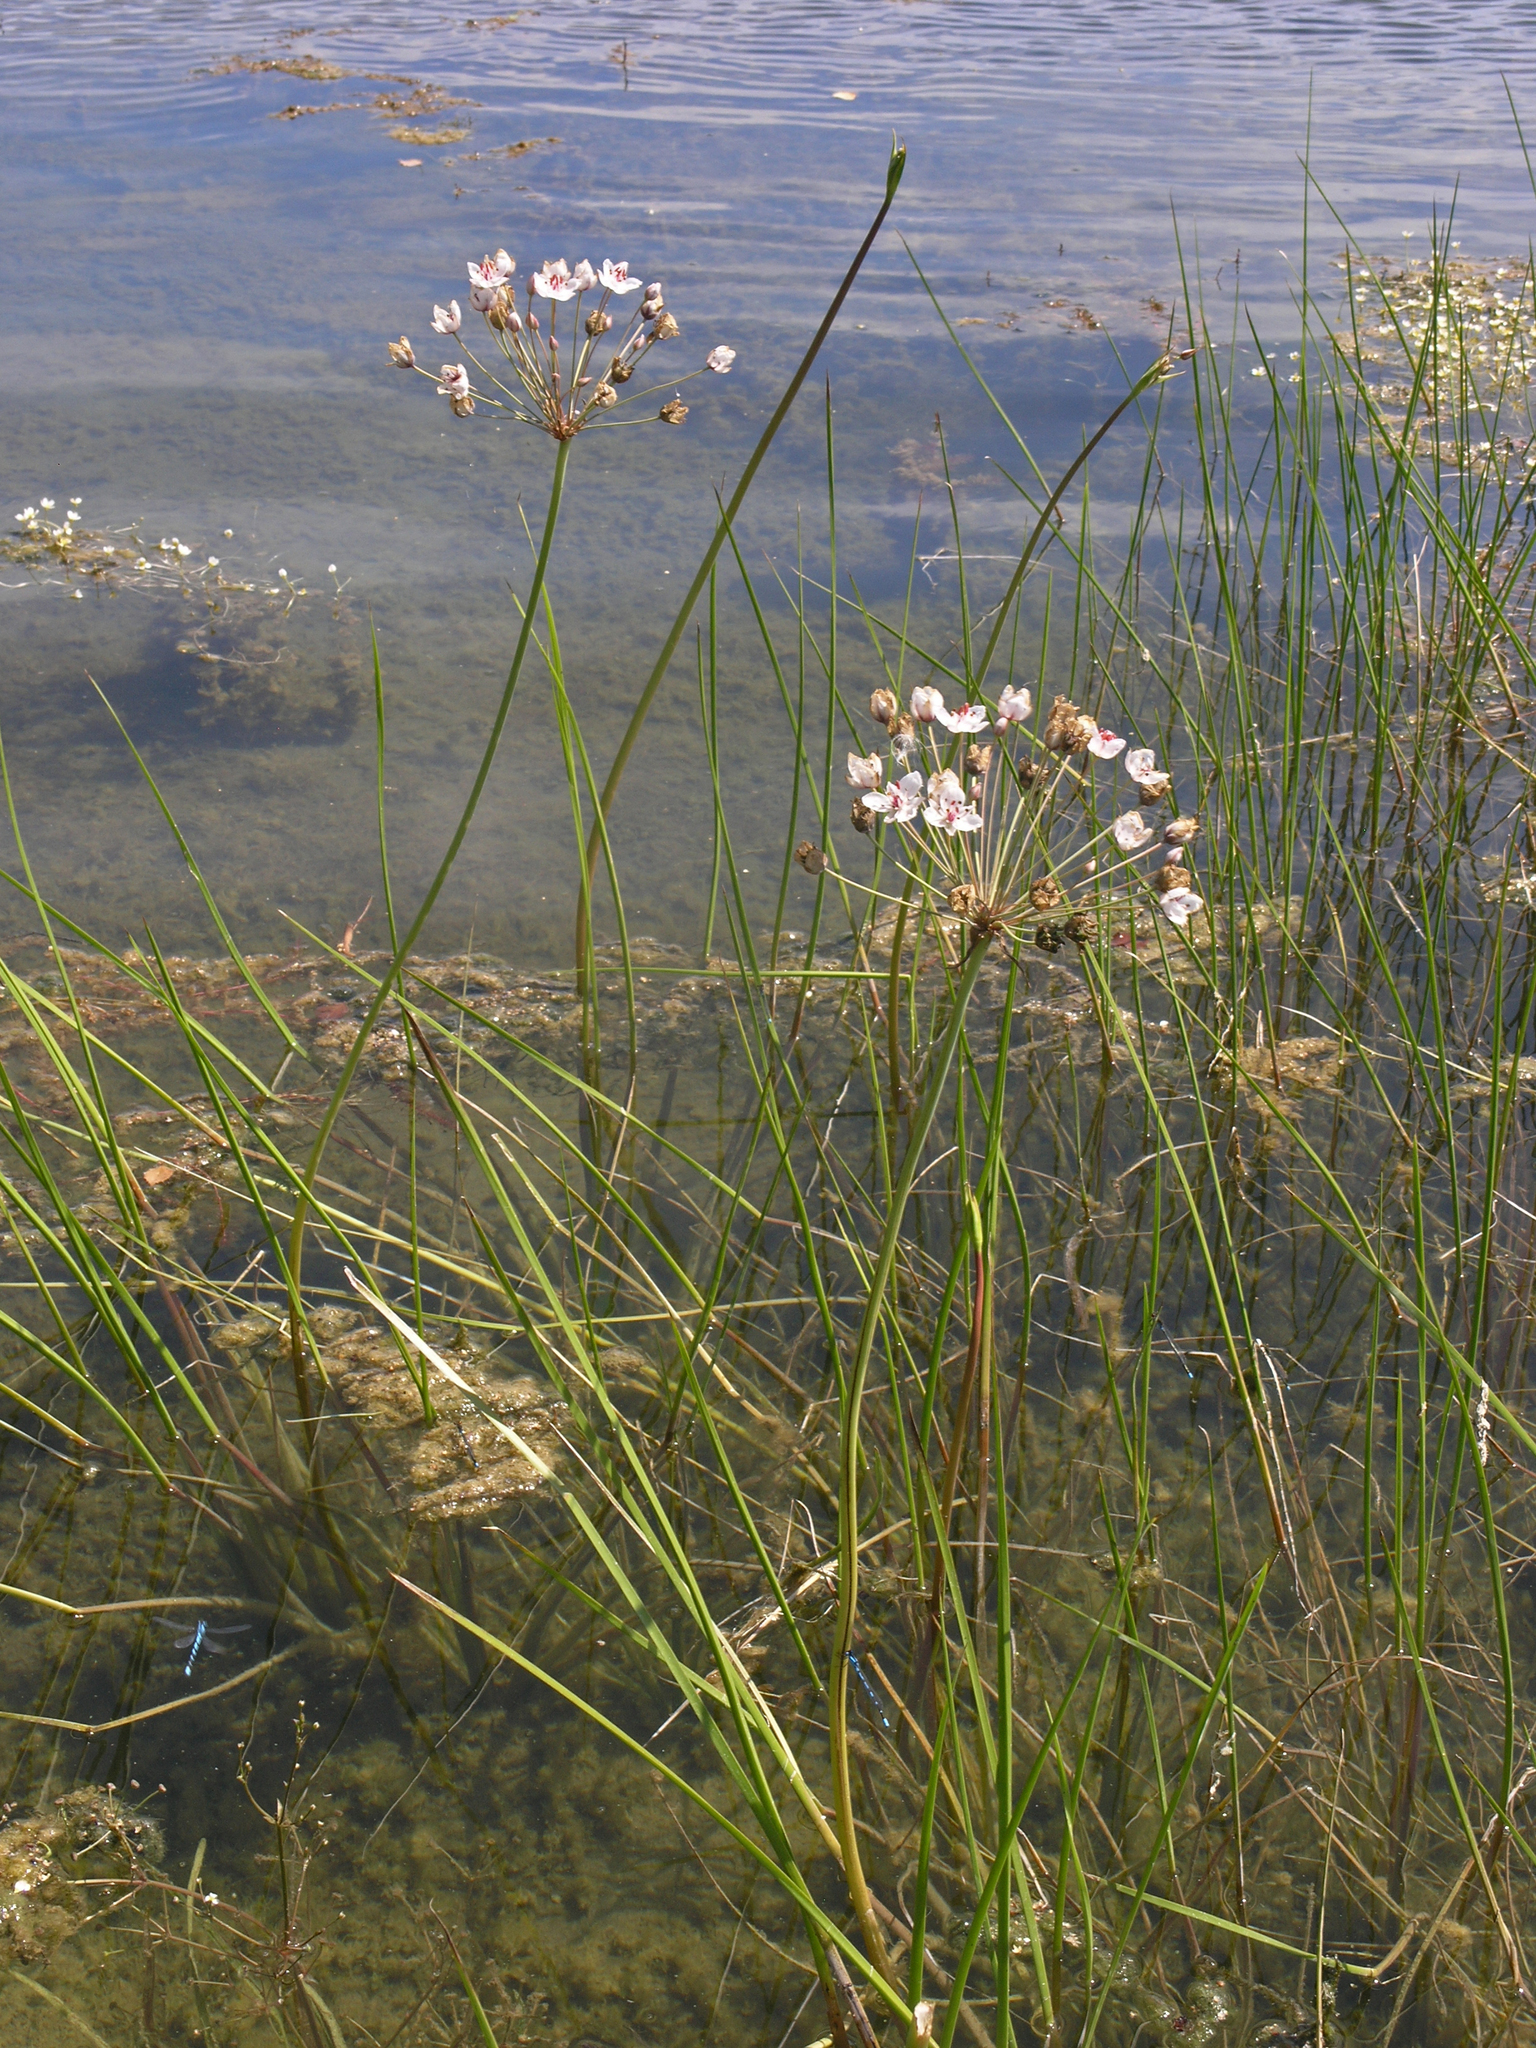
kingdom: Plantae
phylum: Tracheophyta
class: Liliopsida
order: Alismatales
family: Butomaceae
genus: Butomus
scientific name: Butomus umbellatus
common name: Flowering-rush
